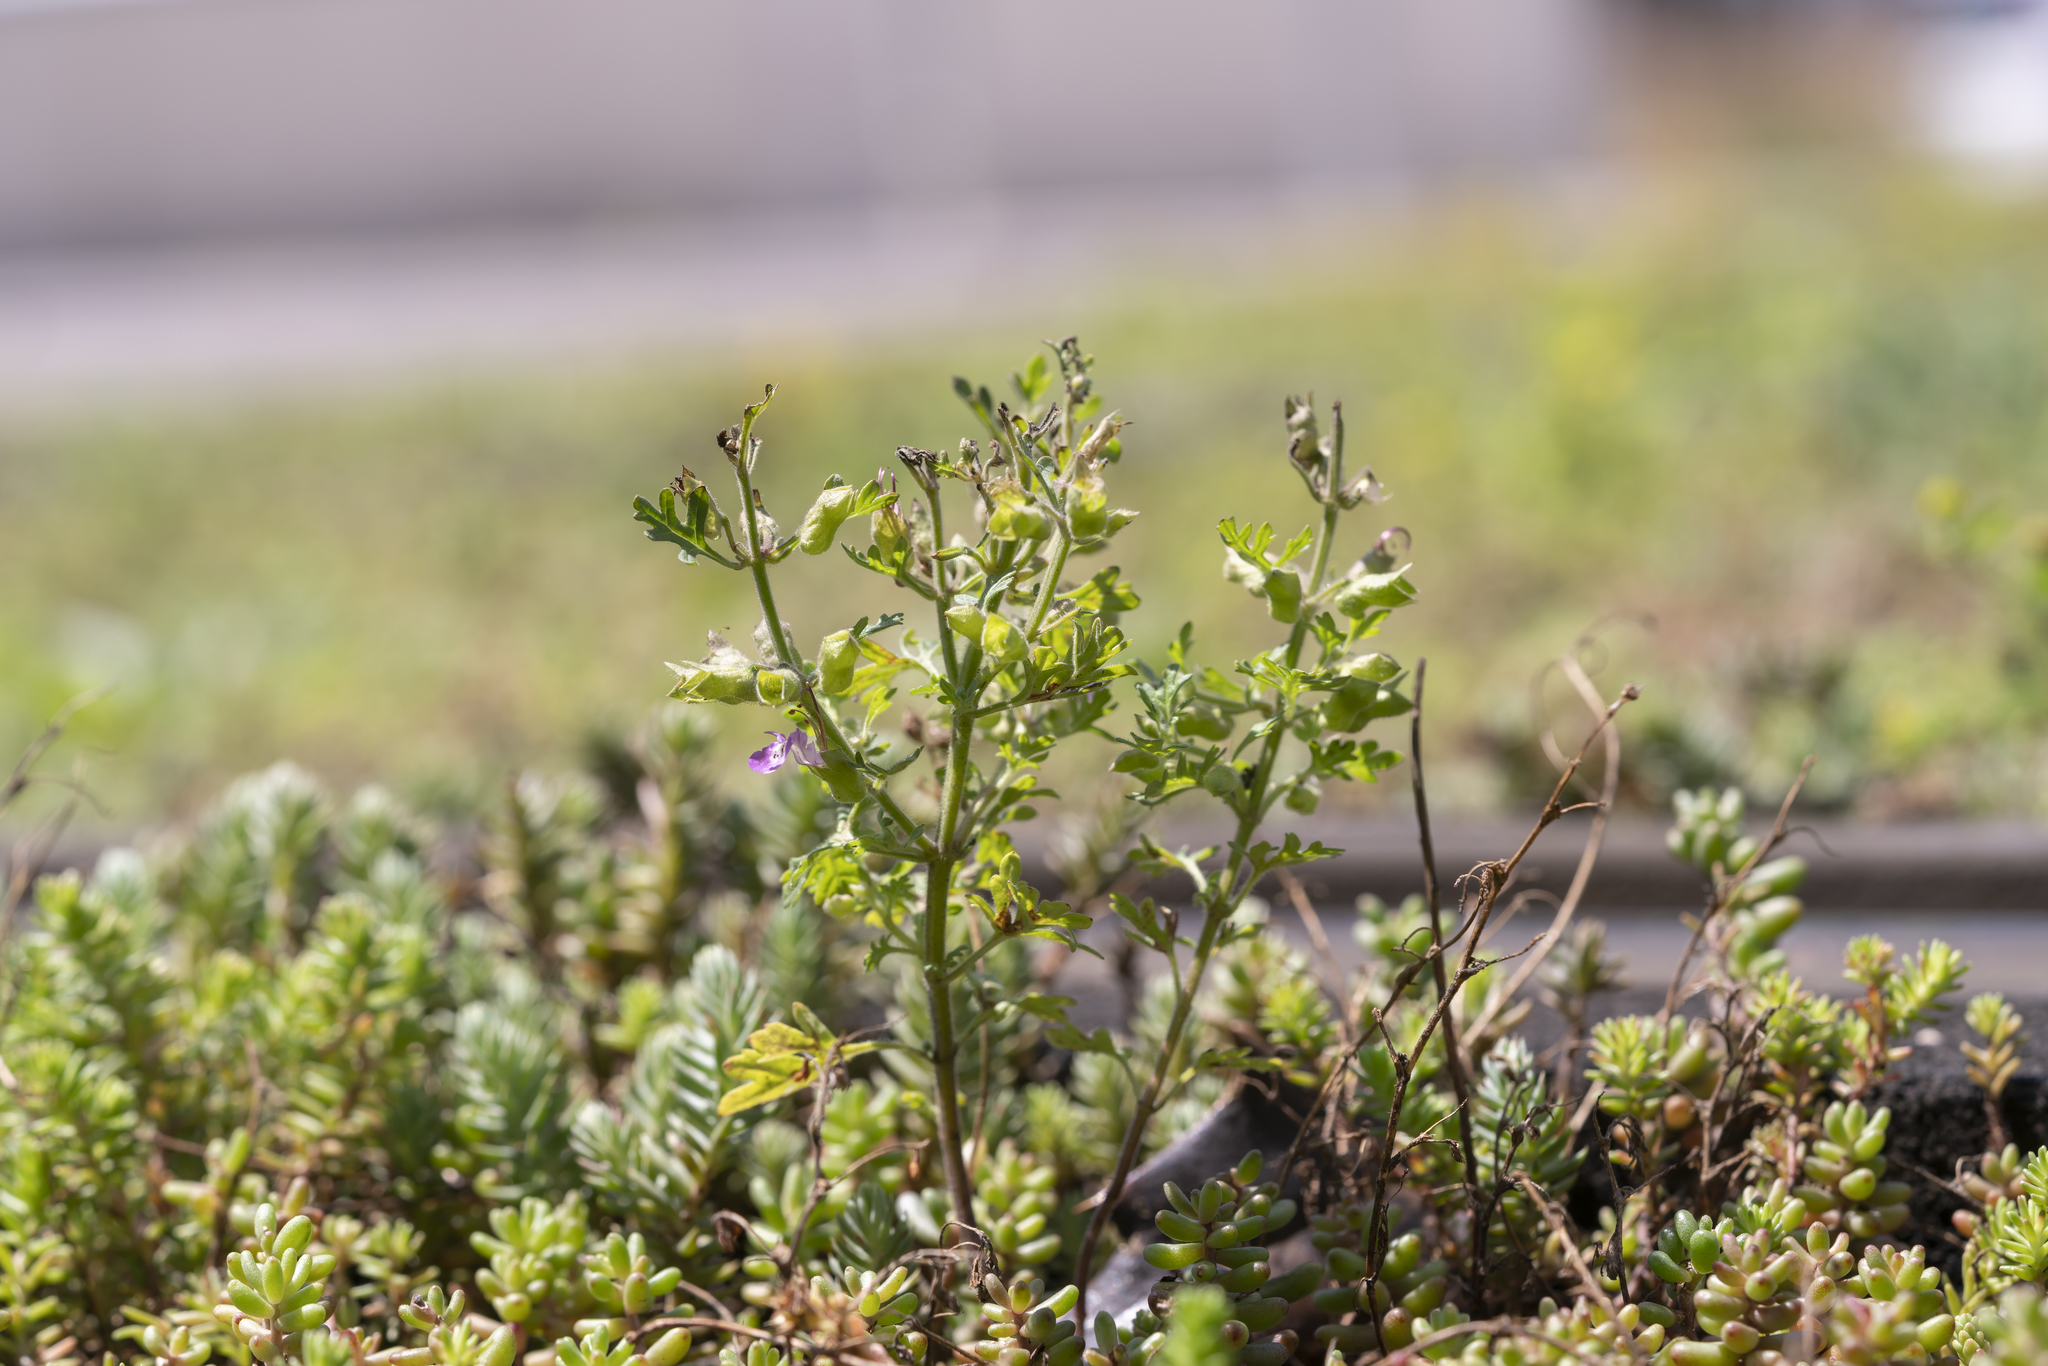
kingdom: Plantae
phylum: Tracheophyta
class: Magnoliopsida
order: Lamiales
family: Lamiaceae
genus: Teucrium
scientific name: Teucrium botrys
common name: Cut-leaved germander
